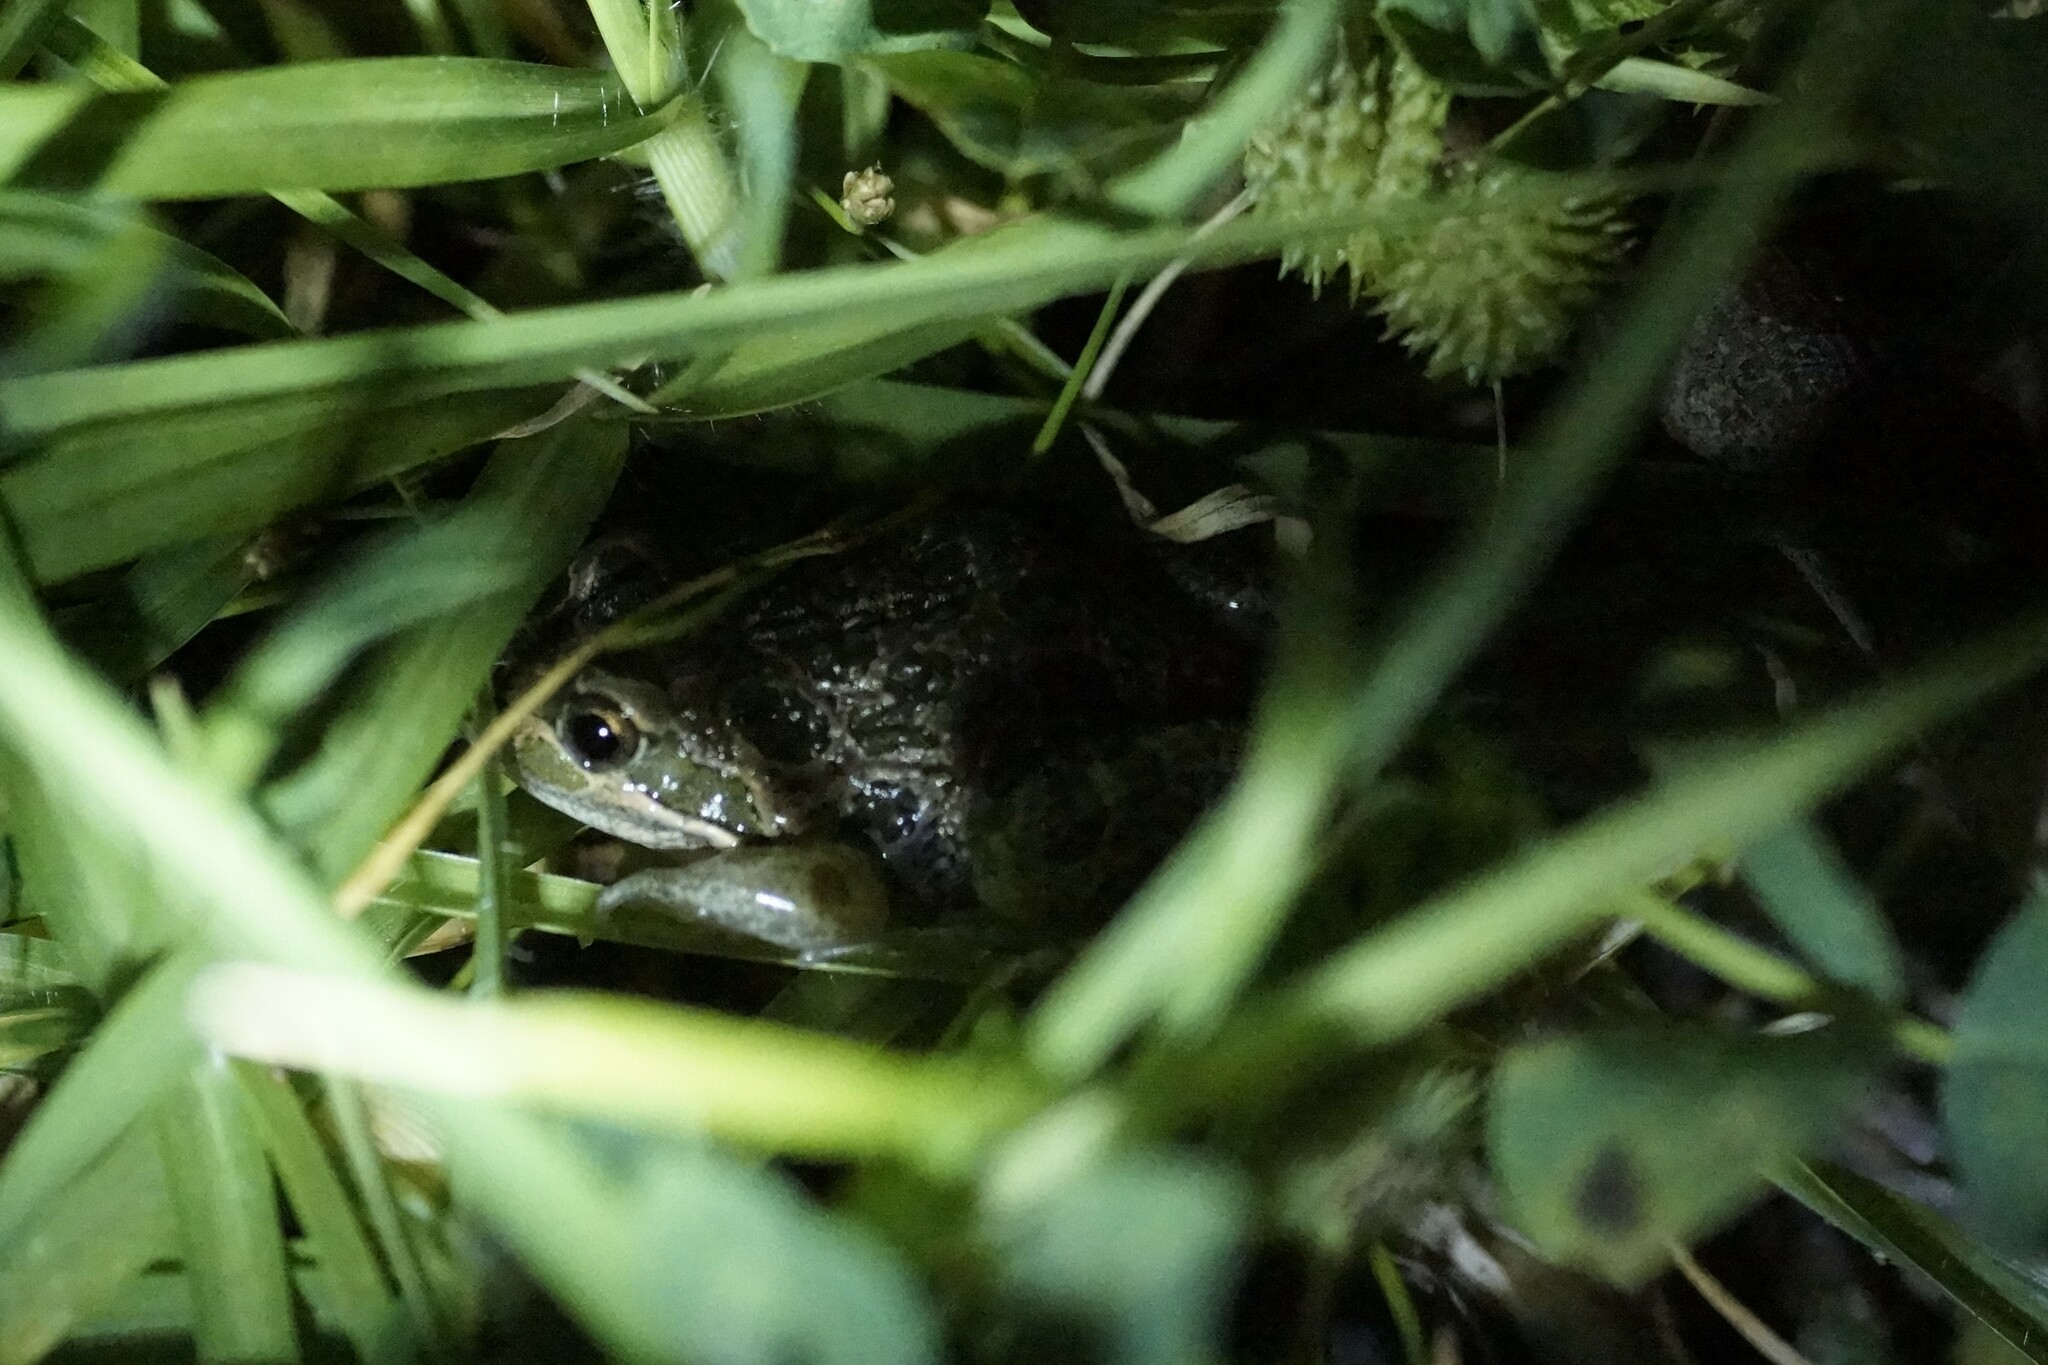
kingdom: Animalia
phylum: Chordata
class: Amphibia
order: Anura
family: Limnodynastidae
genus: Limnodynastes
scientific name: Limnodynastes tasmaniensis
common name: Spotted marsh frog
